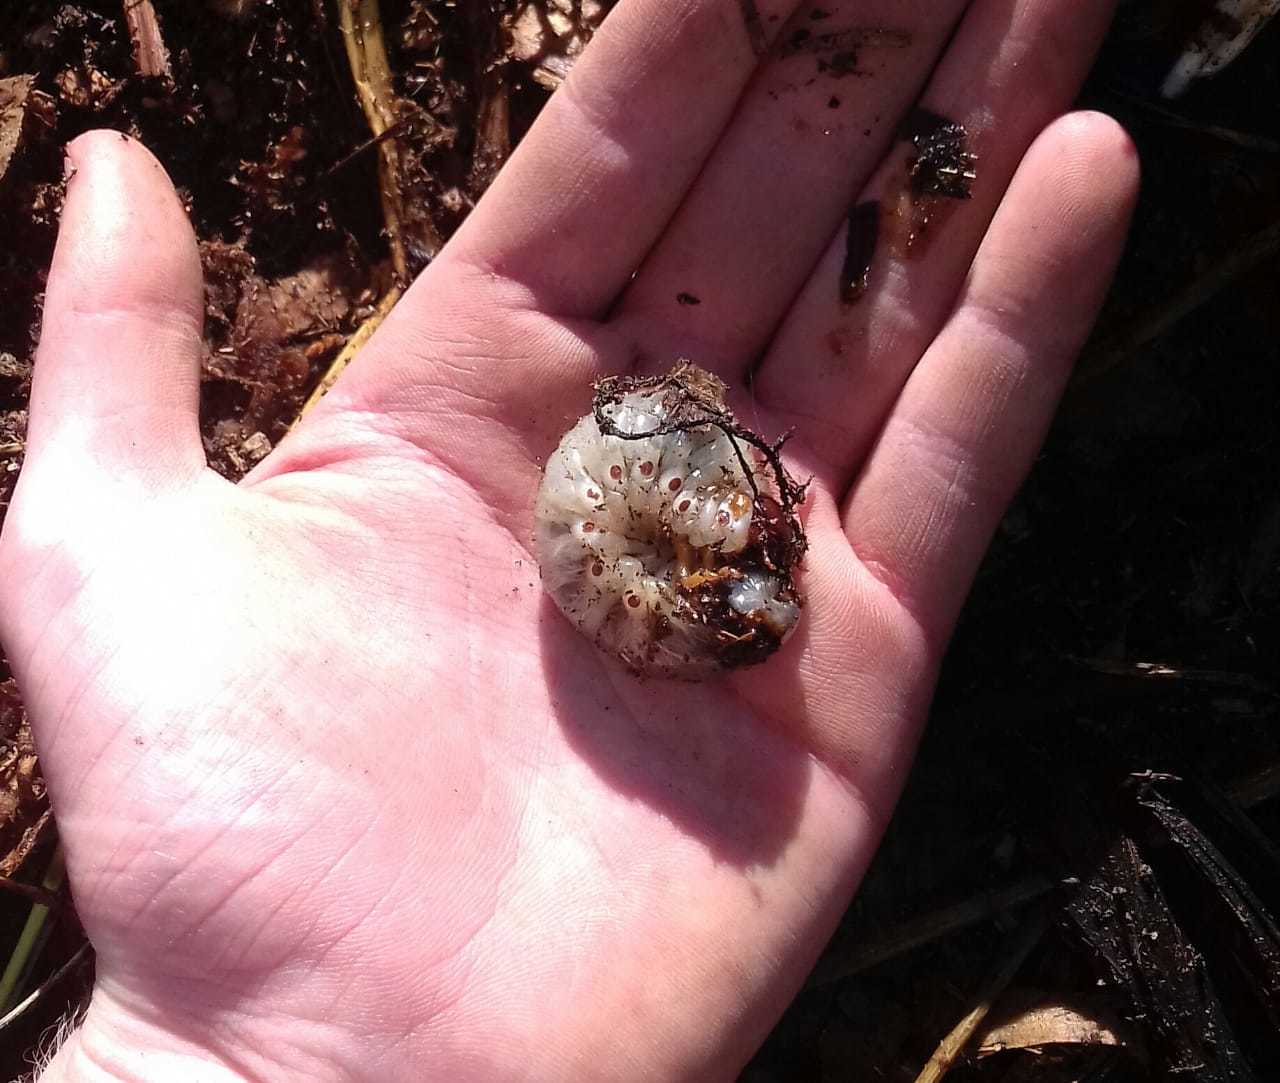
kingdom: Animalia
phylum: Arthropoda
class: Insecta
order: Coleoptera
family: Scarabaeidae
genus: Oryctes
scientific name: Oryctes boas
